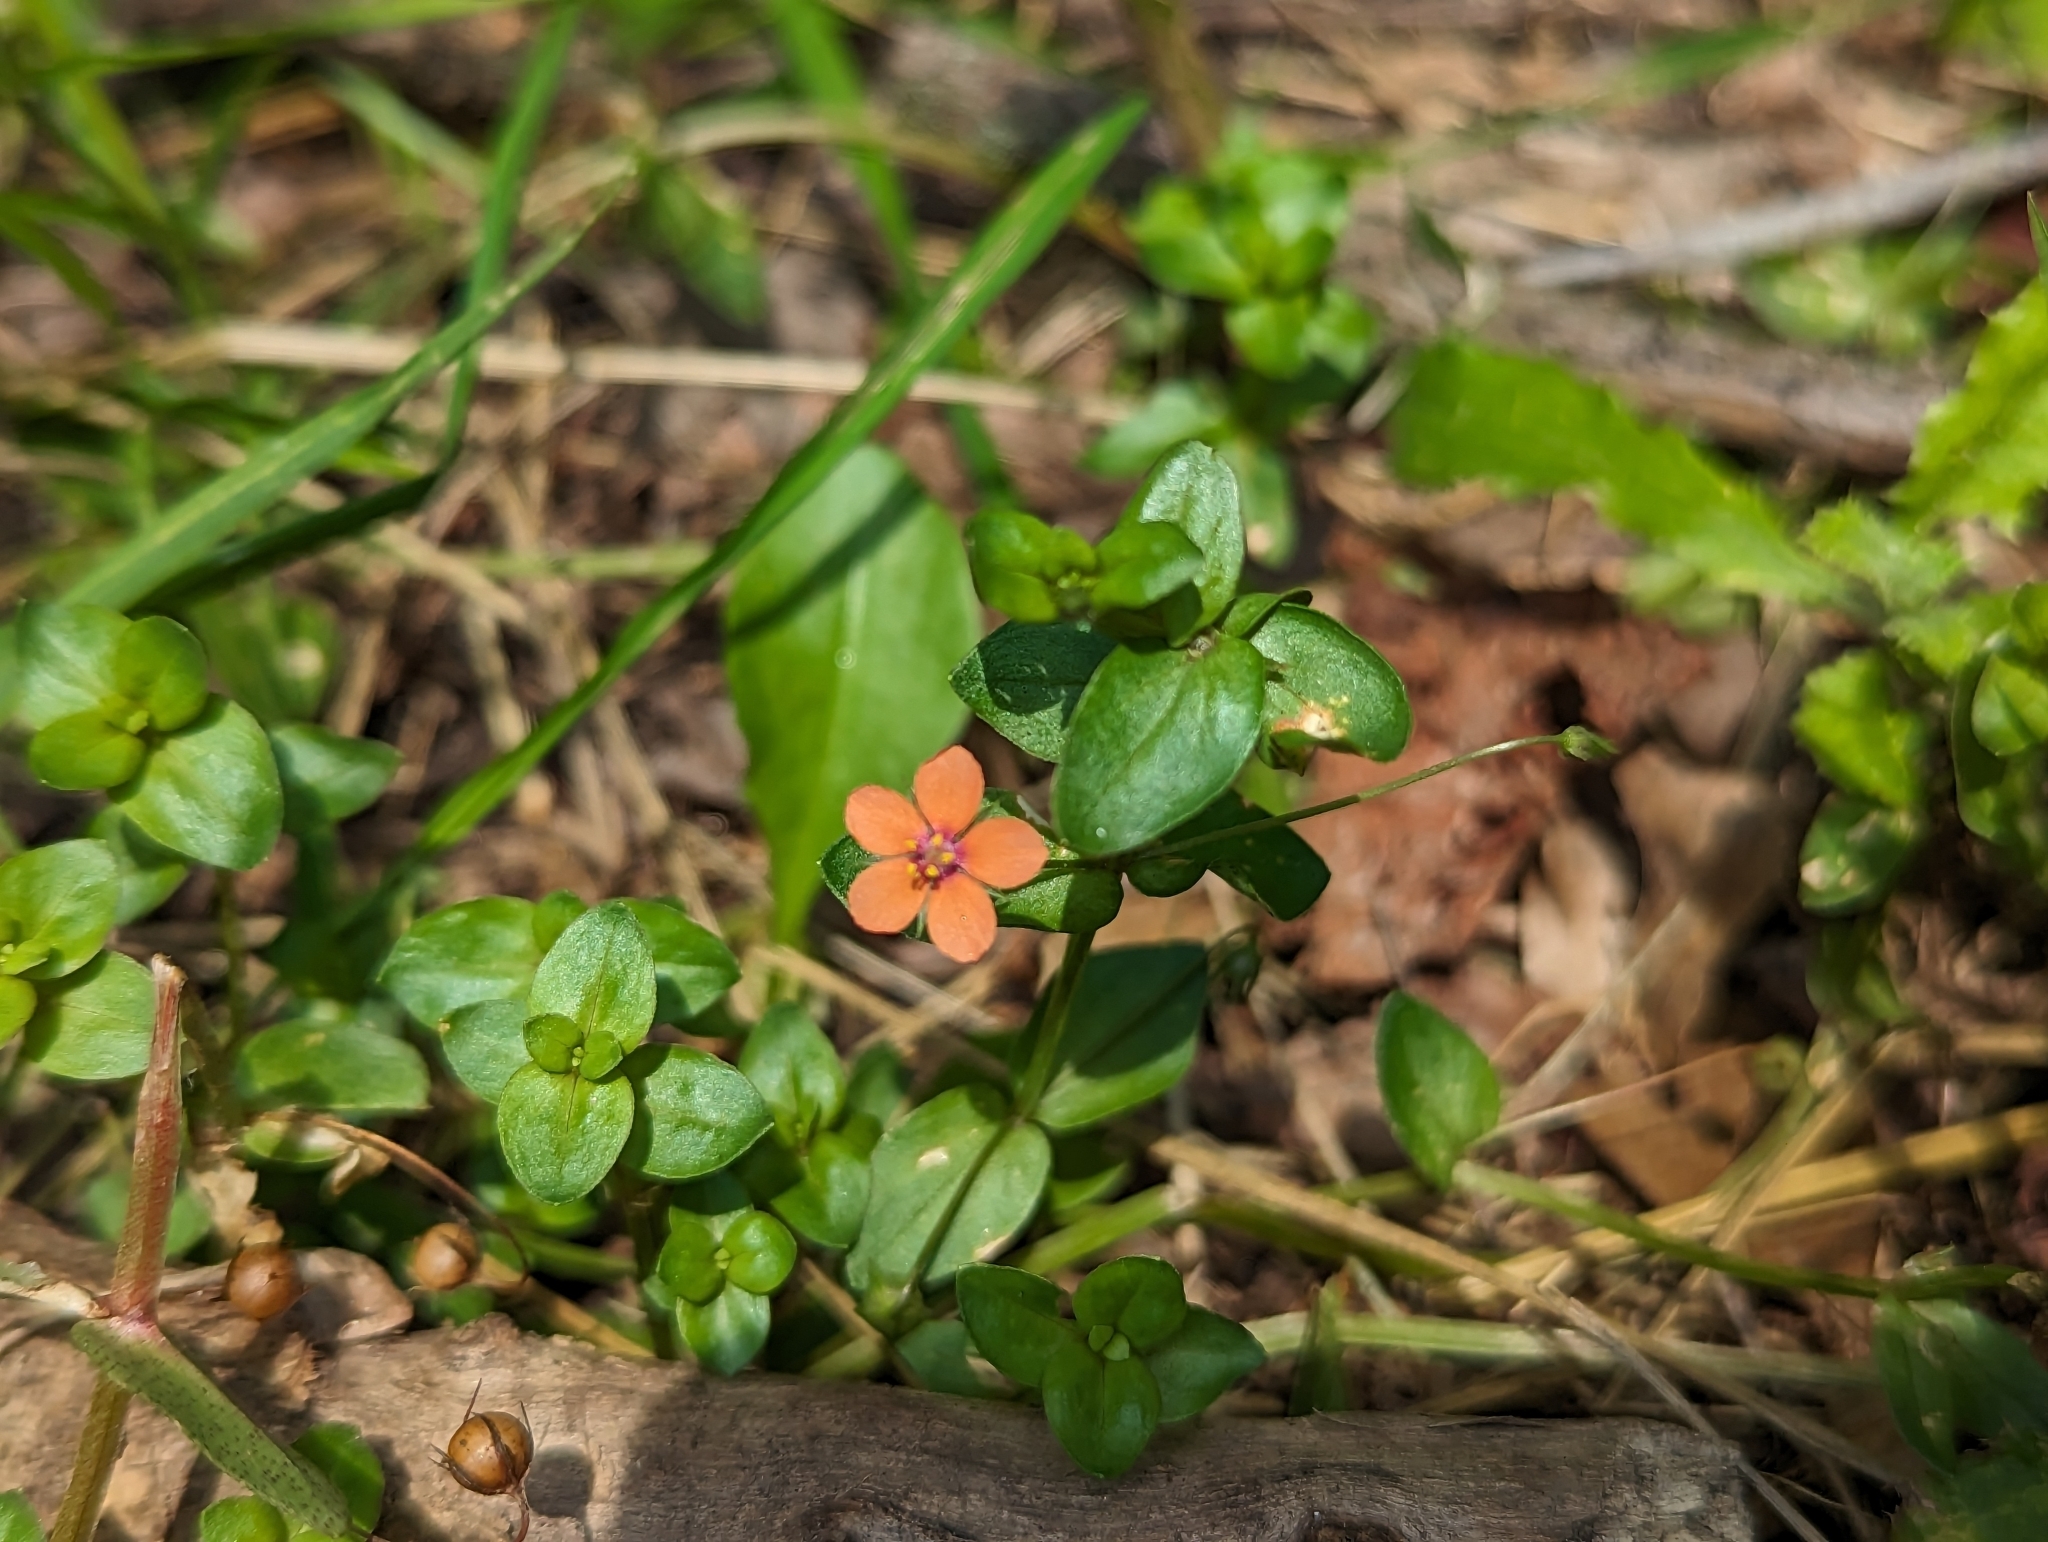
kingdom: Plantae
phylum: Tracheophyta
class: Magnoliopsida
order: Ericales
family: Primulaceae
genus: Lysimachia
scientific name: Lysimachia arvensis
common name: Scarlet pimpernel
